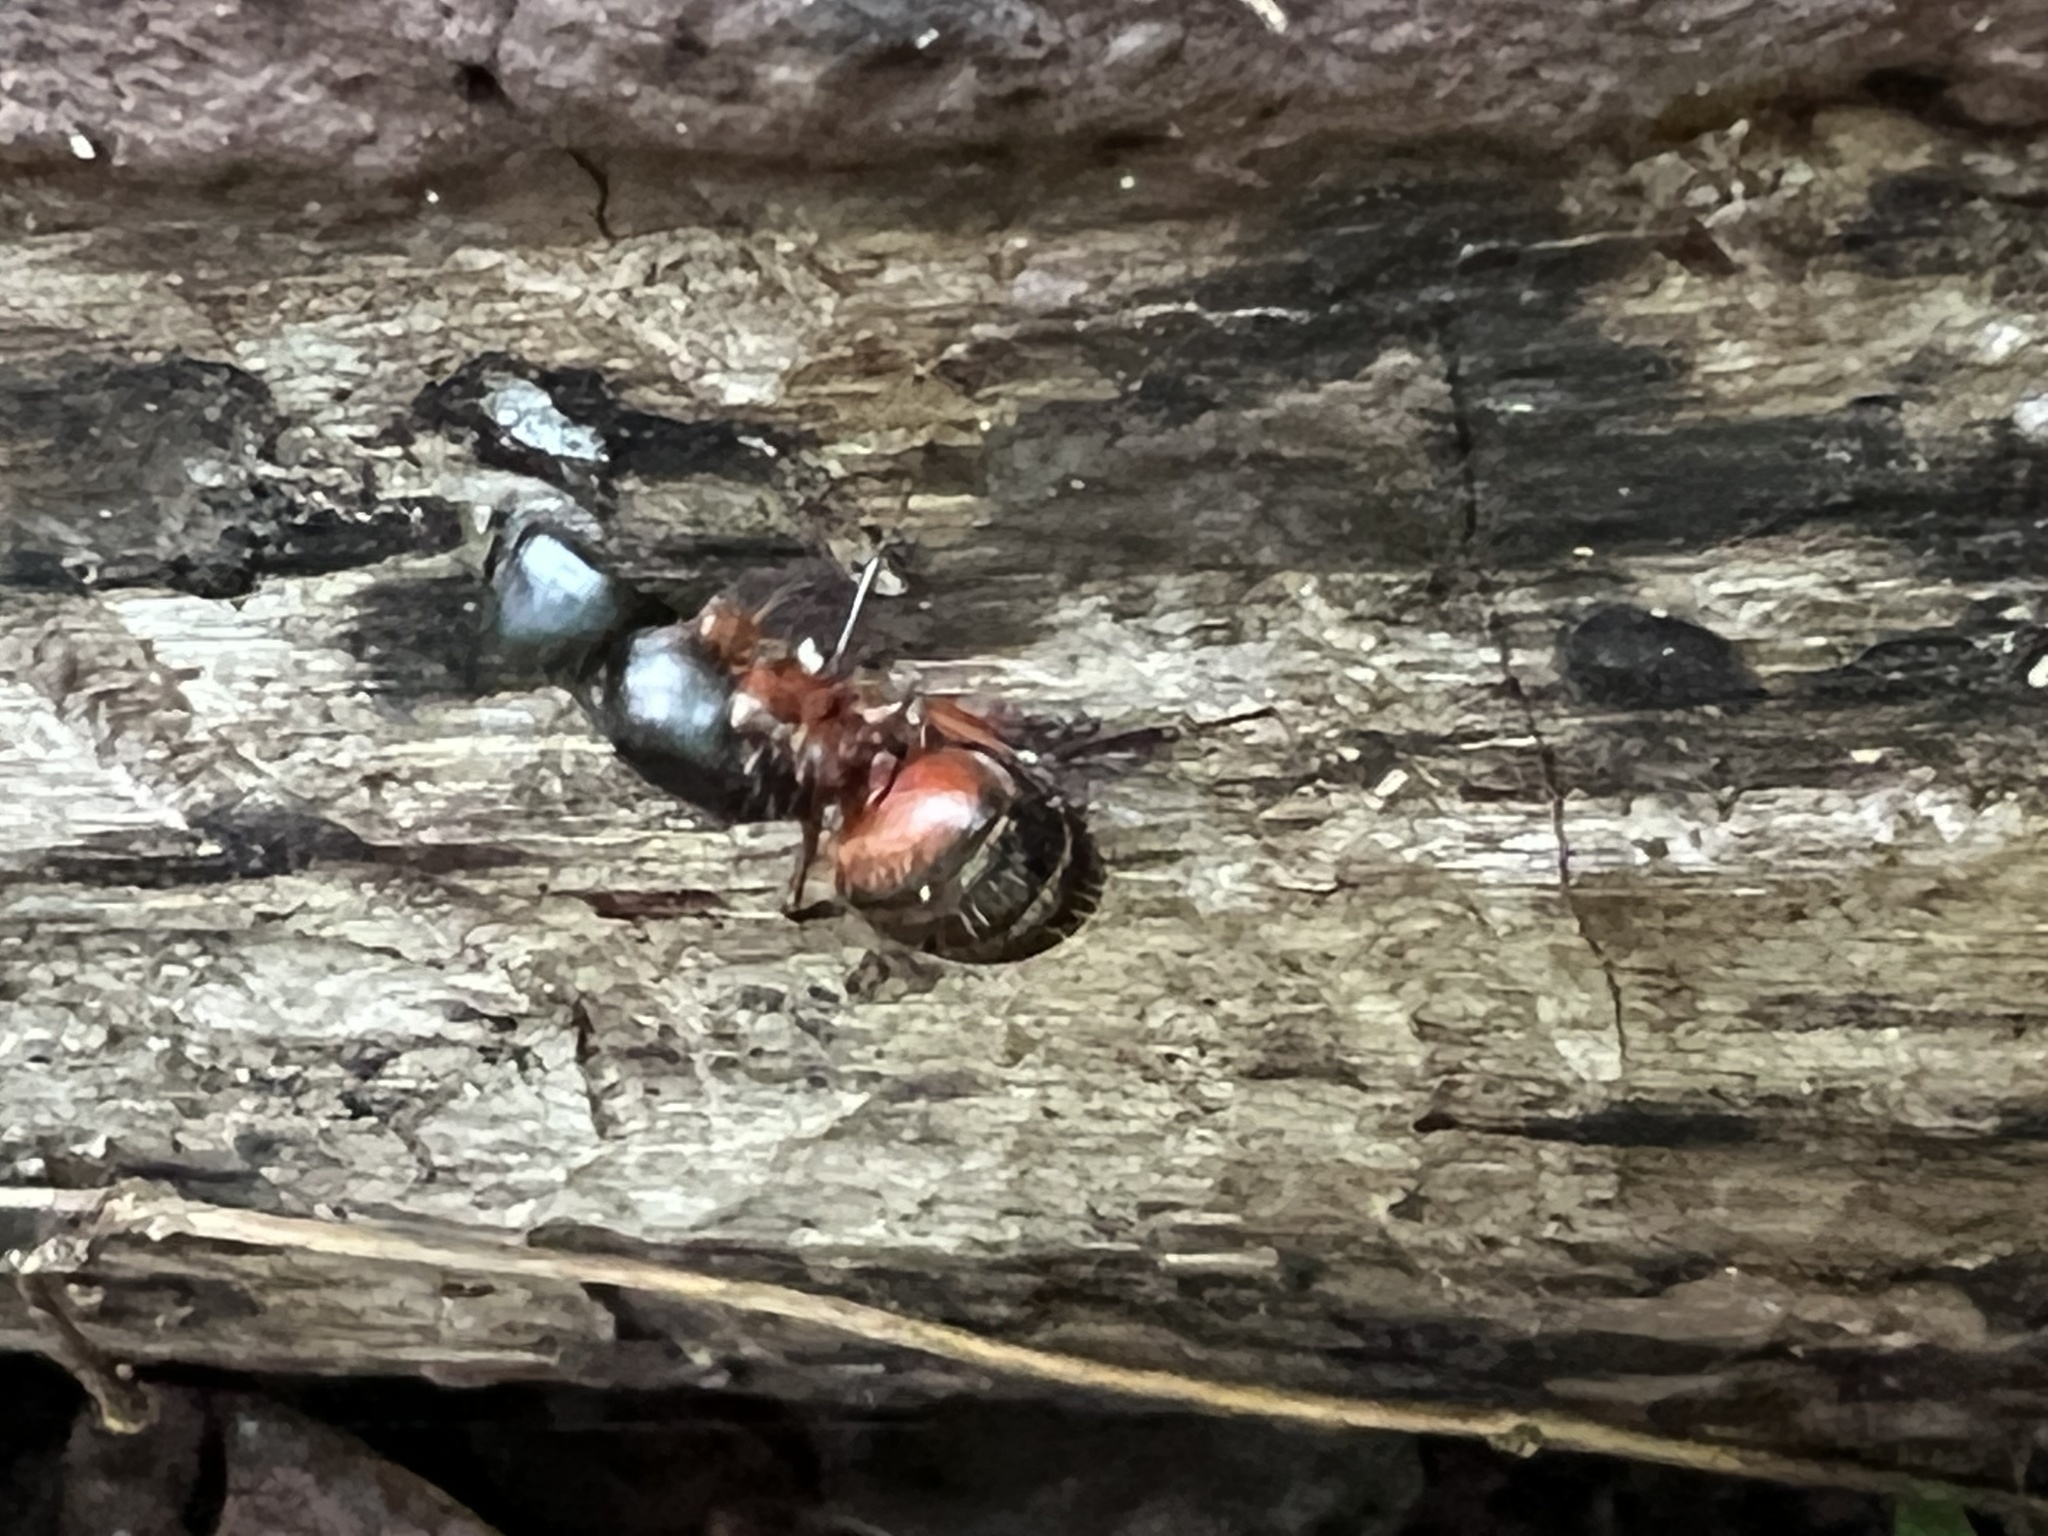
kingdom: Animalia
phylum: Arthropoda
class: Insecta
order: Hymenoptera
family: Formicidae
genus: Camponotus
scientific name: Camponotus chromaiodes
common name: Red carpenter ant
